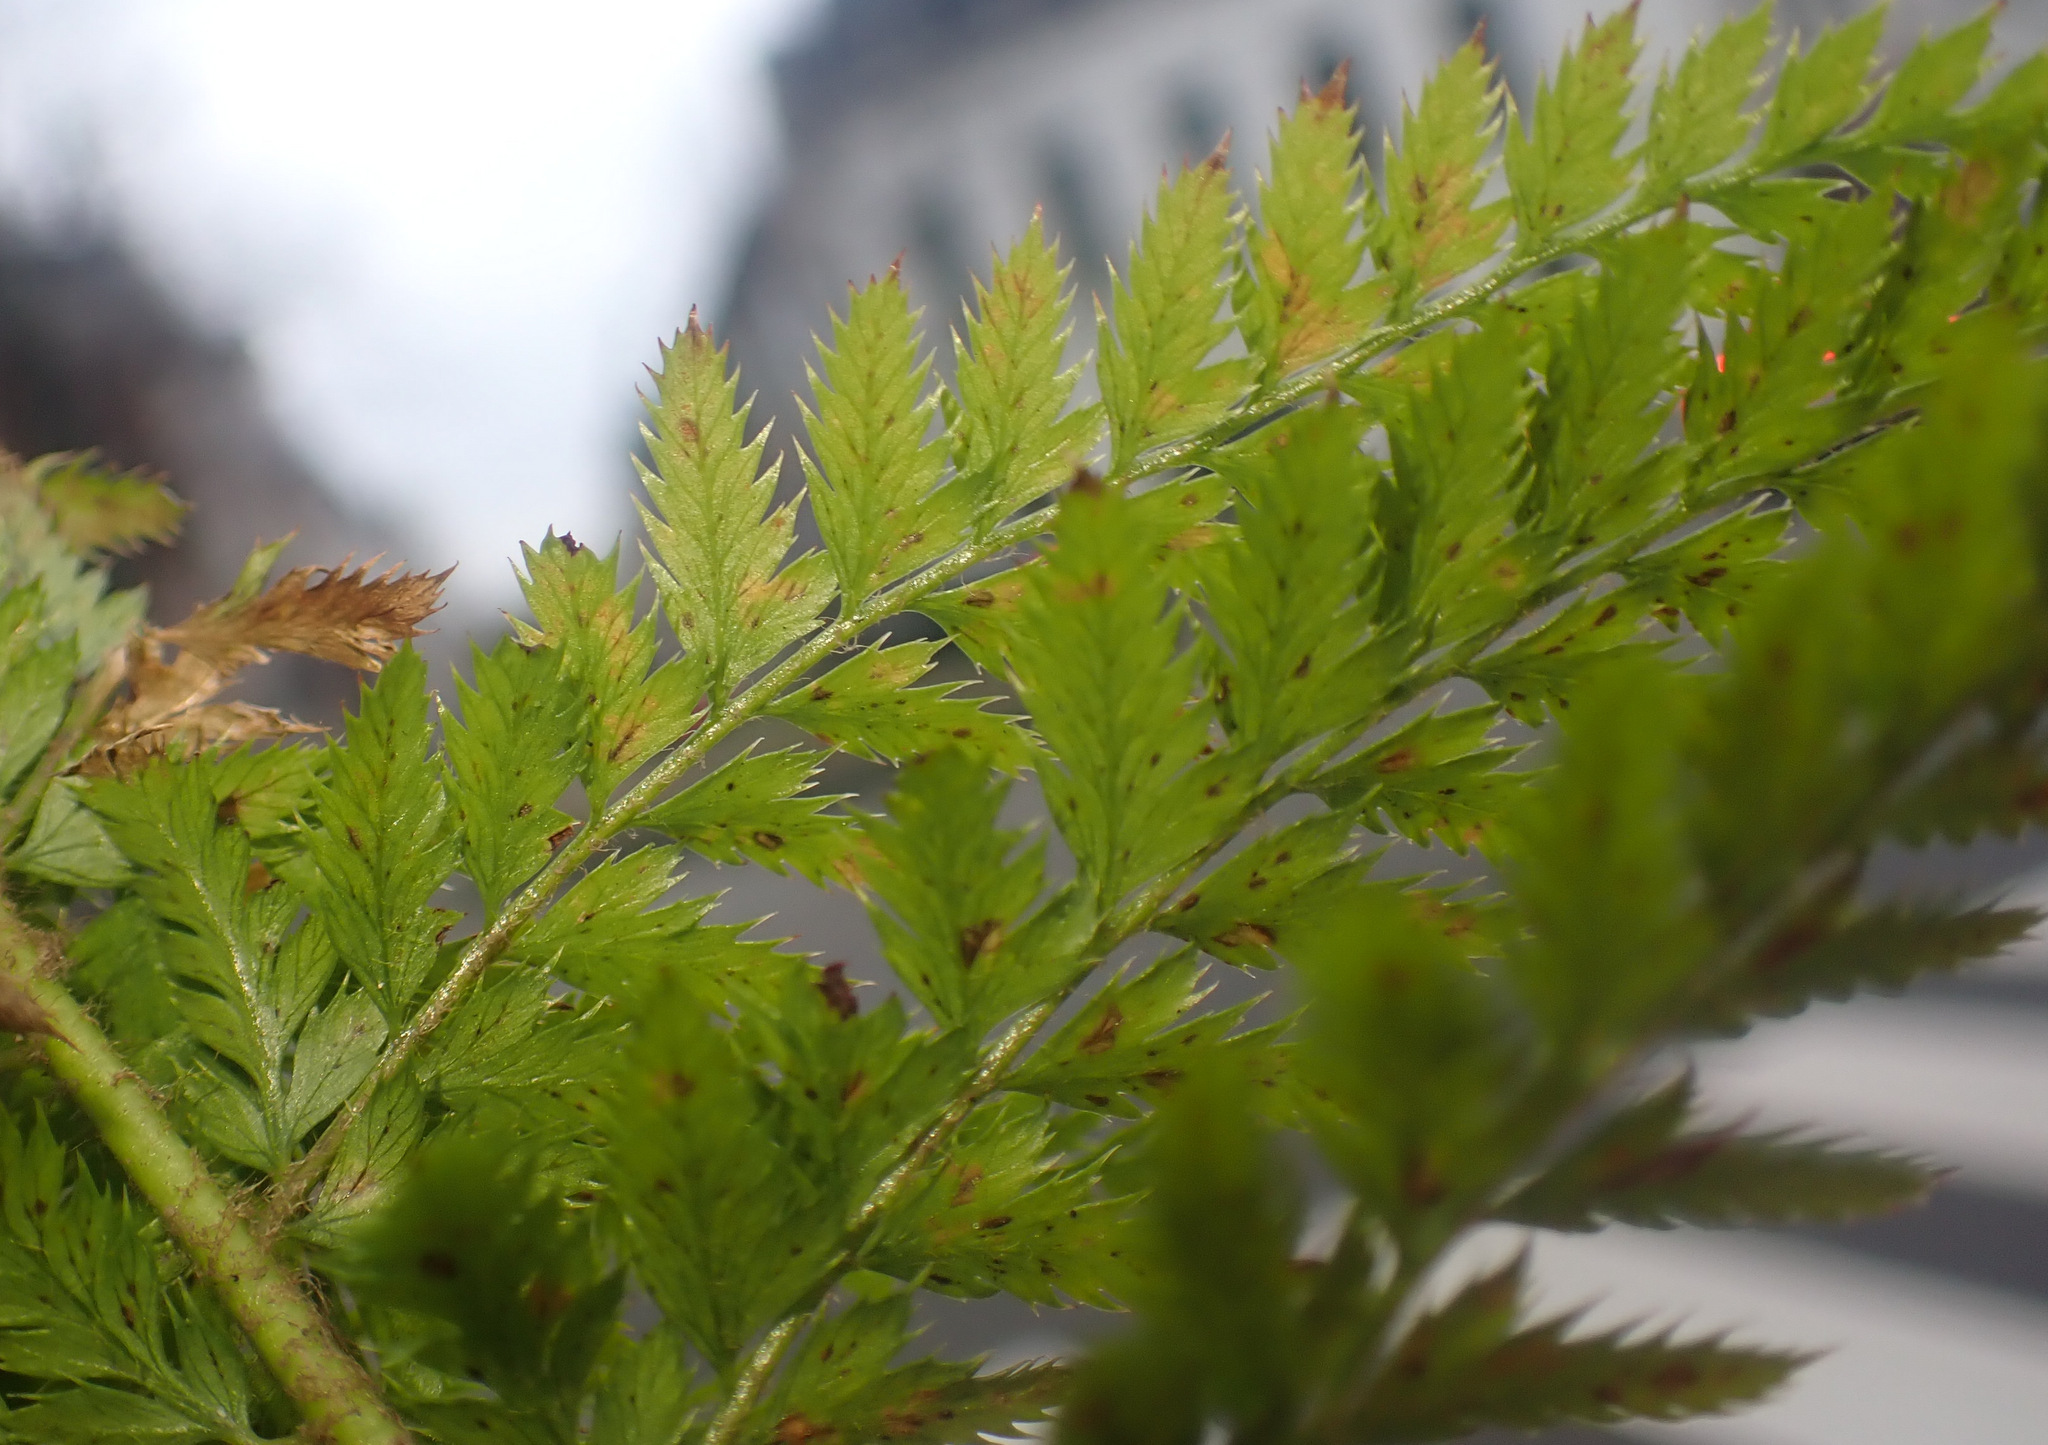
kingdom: Plantae
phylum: Tracheophyta
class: Polypodiopsida
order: Polypodiales
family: Dryopteridaceae
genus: Polystichum
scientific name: Polystichum setiferum
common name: Soft shield-fern
